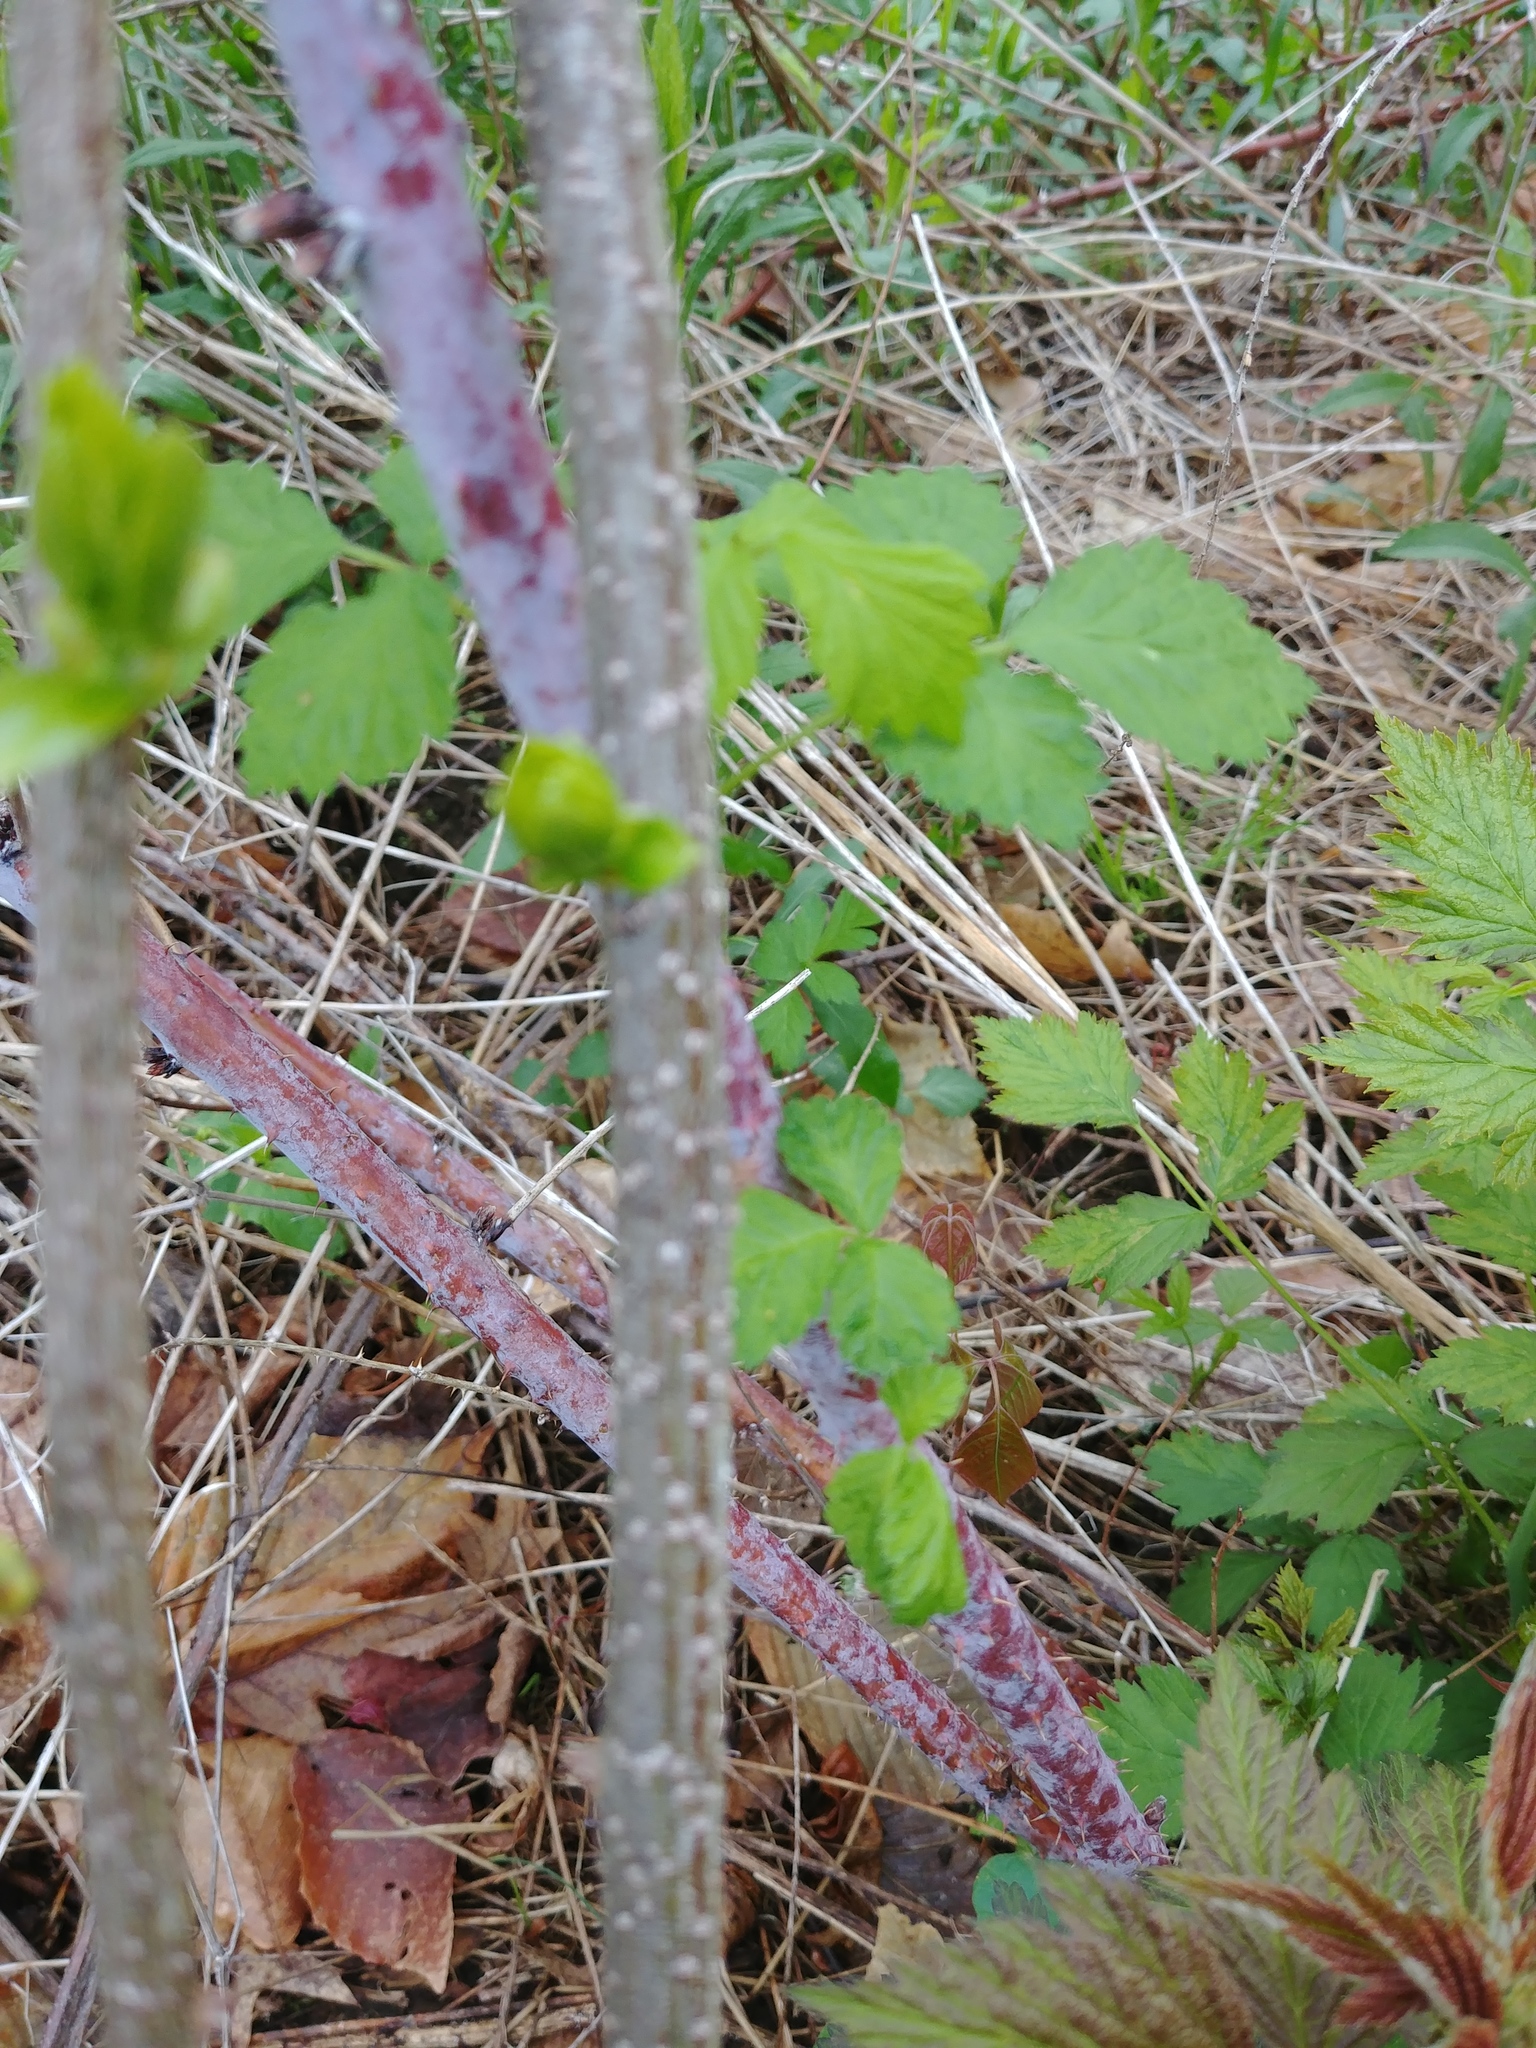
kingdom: Plantae
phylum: Tracheophyta
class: Magnoliopsida
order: Rosales
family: Rosaceae
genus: Rubus
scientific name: Rubus occidentalis
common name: Black raspberry
